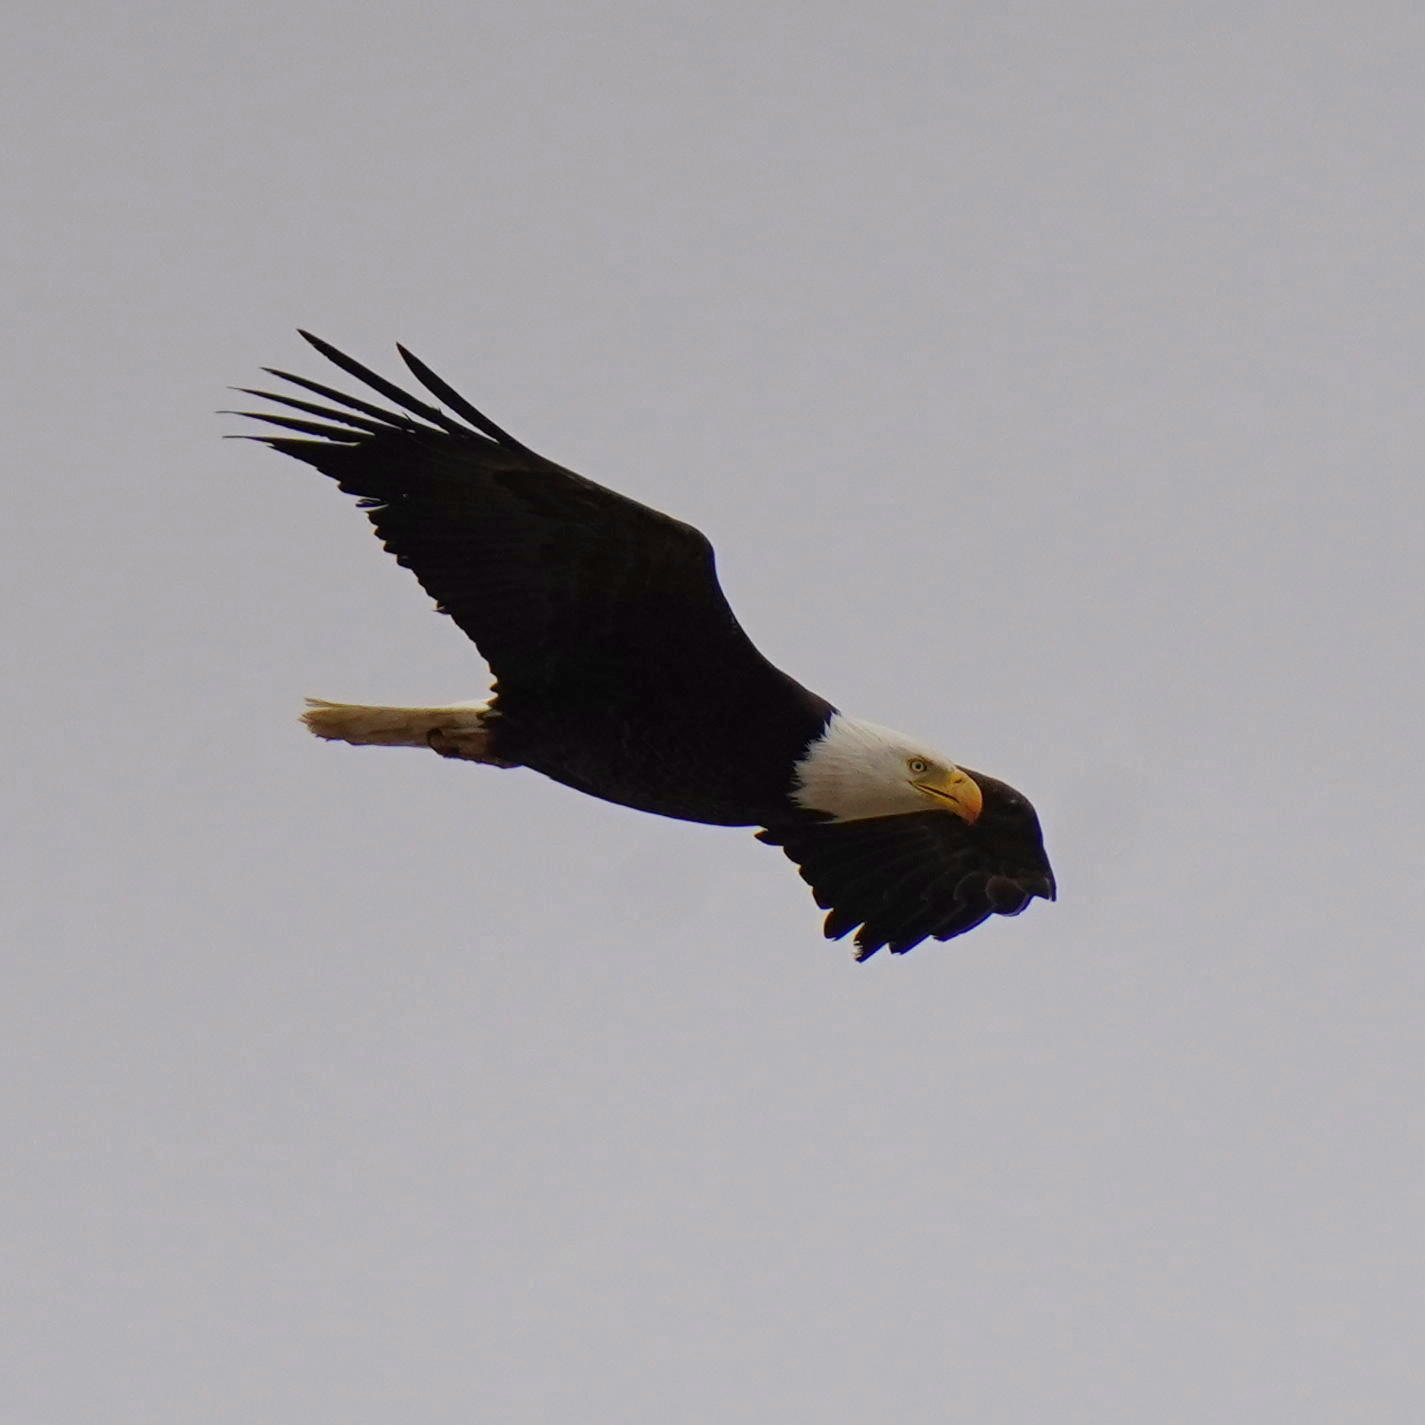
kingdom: Animalia
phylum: Chordata
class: Aves
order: Accipitriformes
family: Accipitridae
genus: Haliaeetus
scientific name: Haliaeetus leucocephalus
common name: Bald eagle
